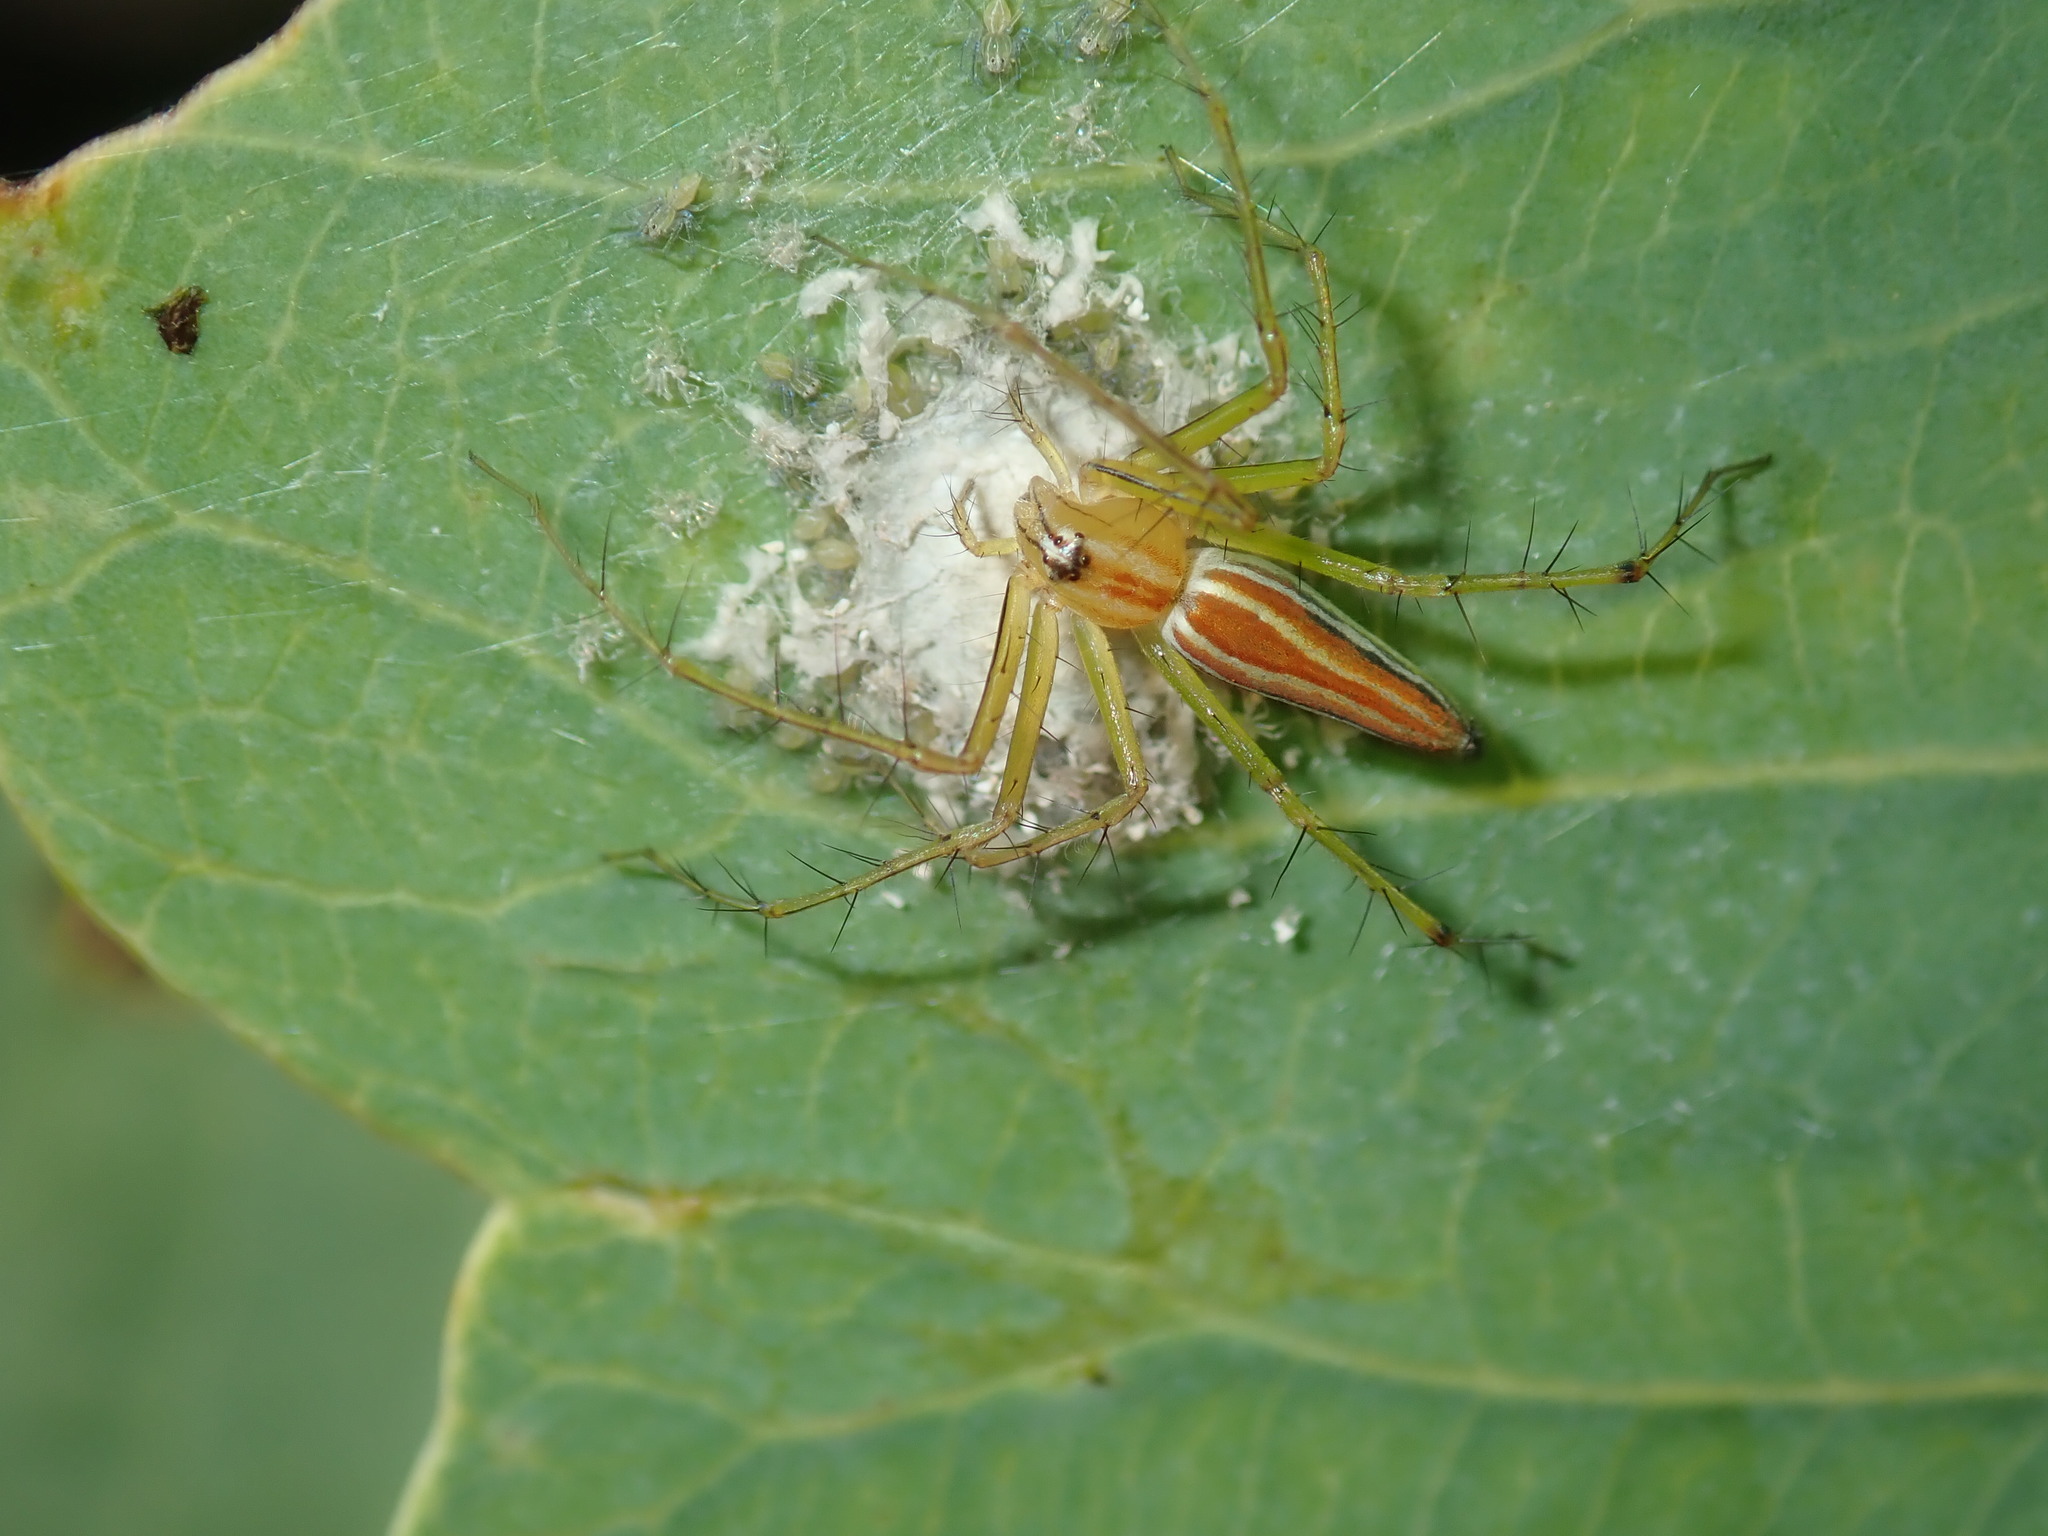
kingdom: Animalia
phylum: Arthropoda
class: Arachnida
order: Araneae
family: Oxyopidae
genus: Oxyopes
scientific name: Oxyopes macilentus
